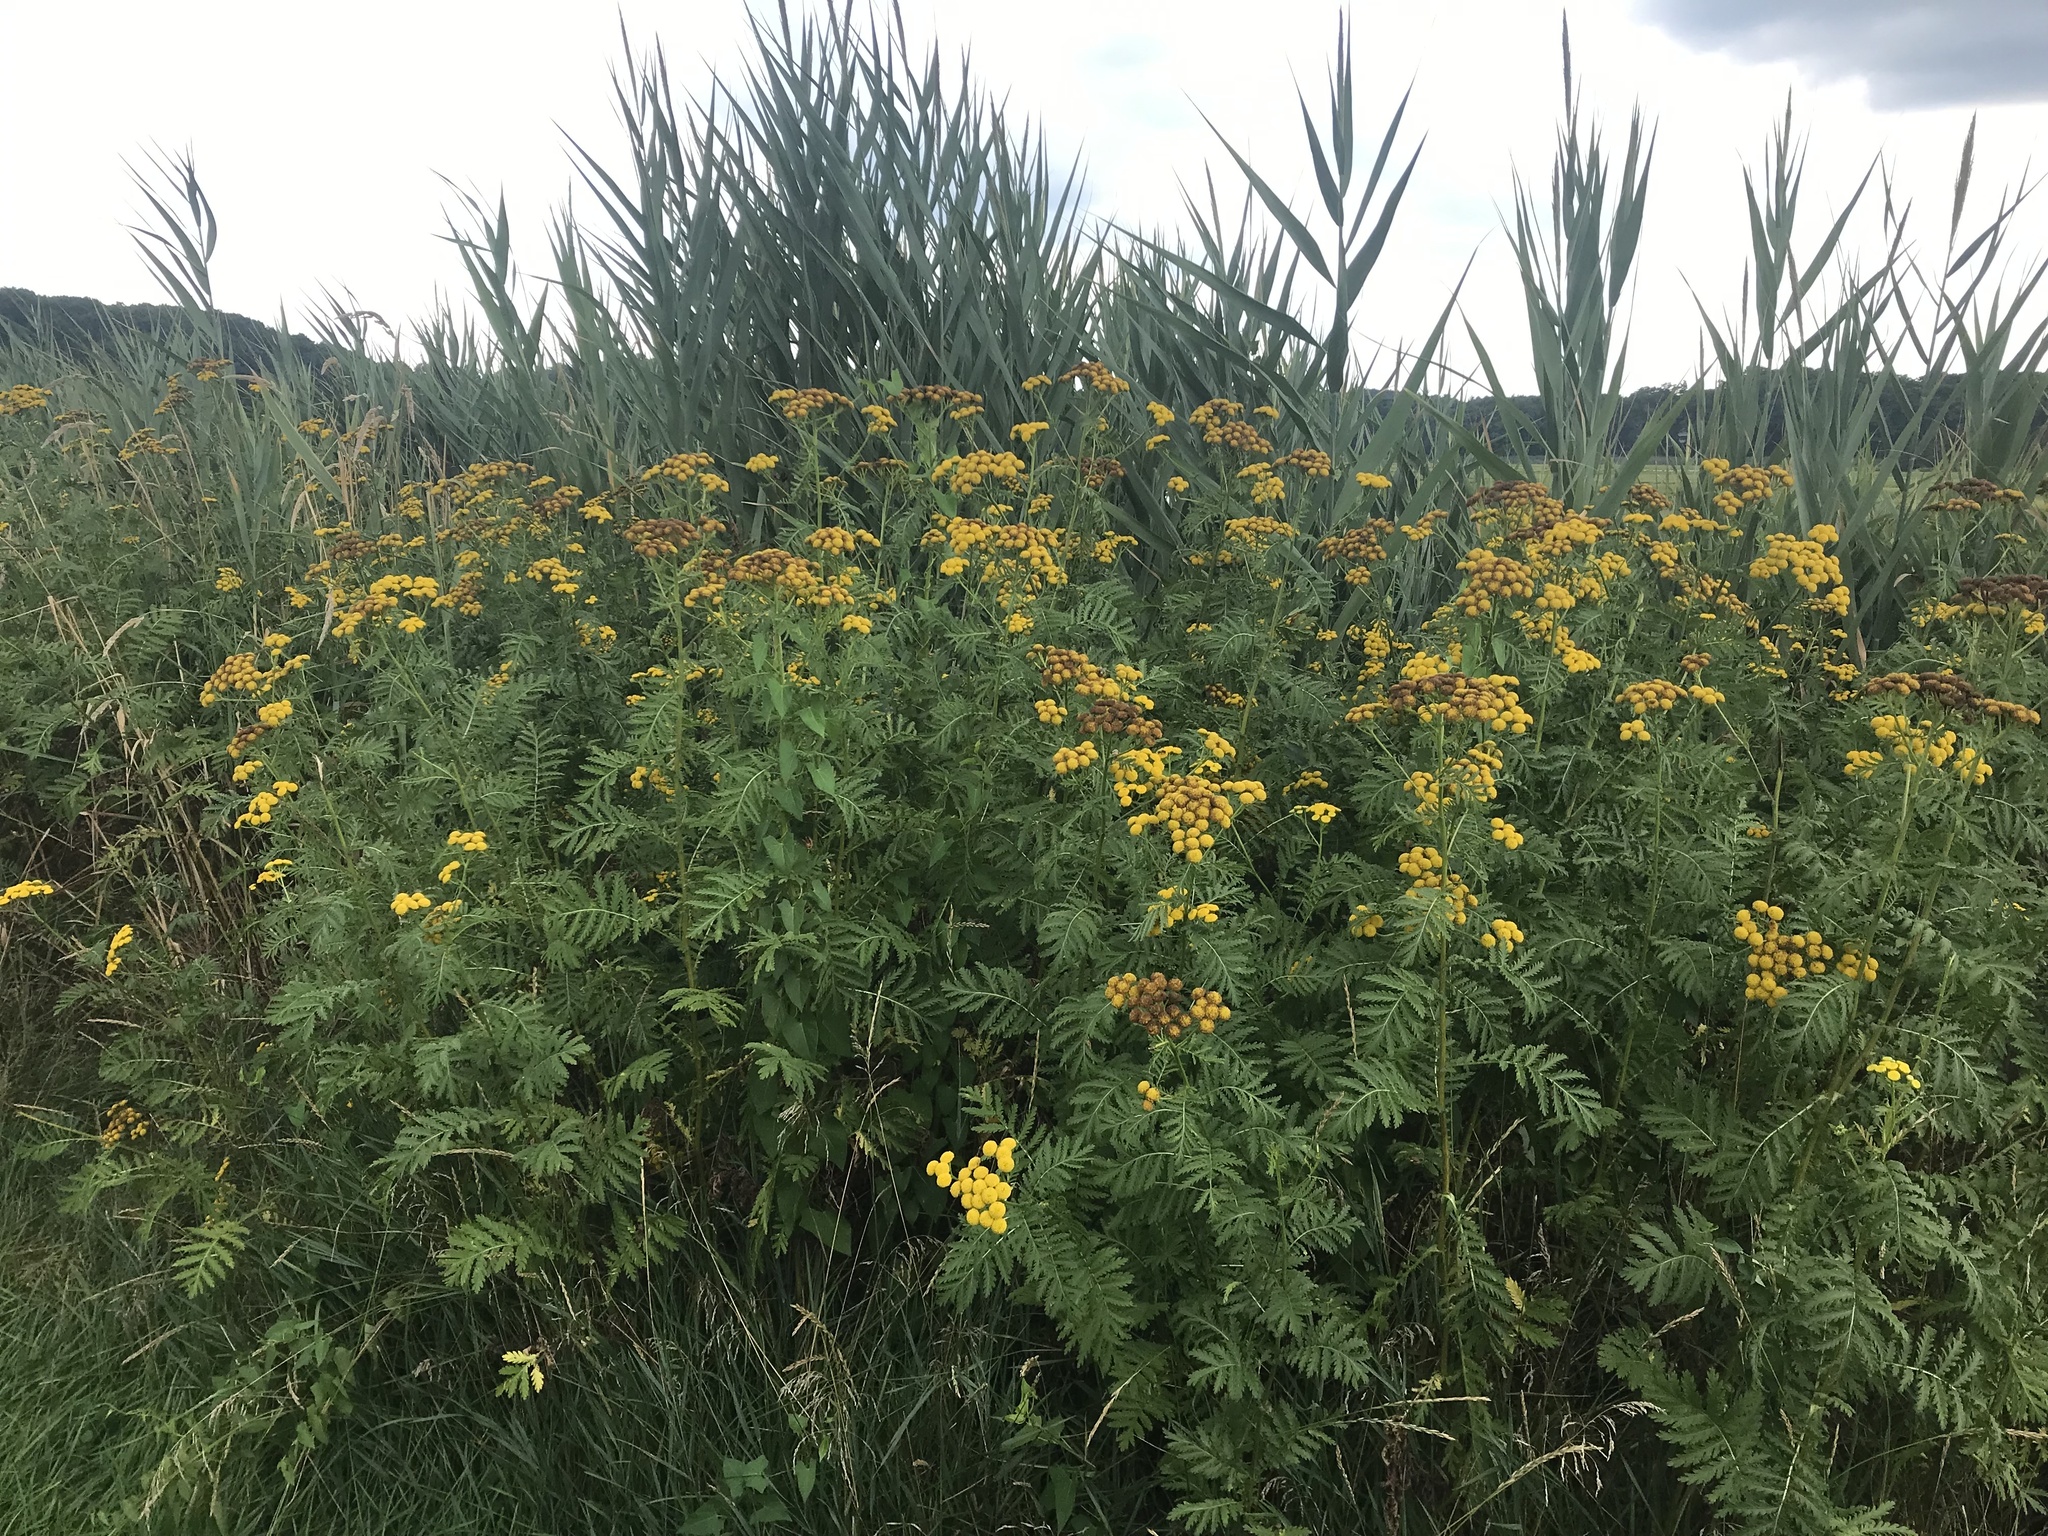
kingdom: Plantae
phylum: Tracheophyta
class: Magnoliopsida
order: Asterales
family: Asteraceae
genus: Tanacetum
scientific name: Tanacetum vulgare
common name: Common tansy
